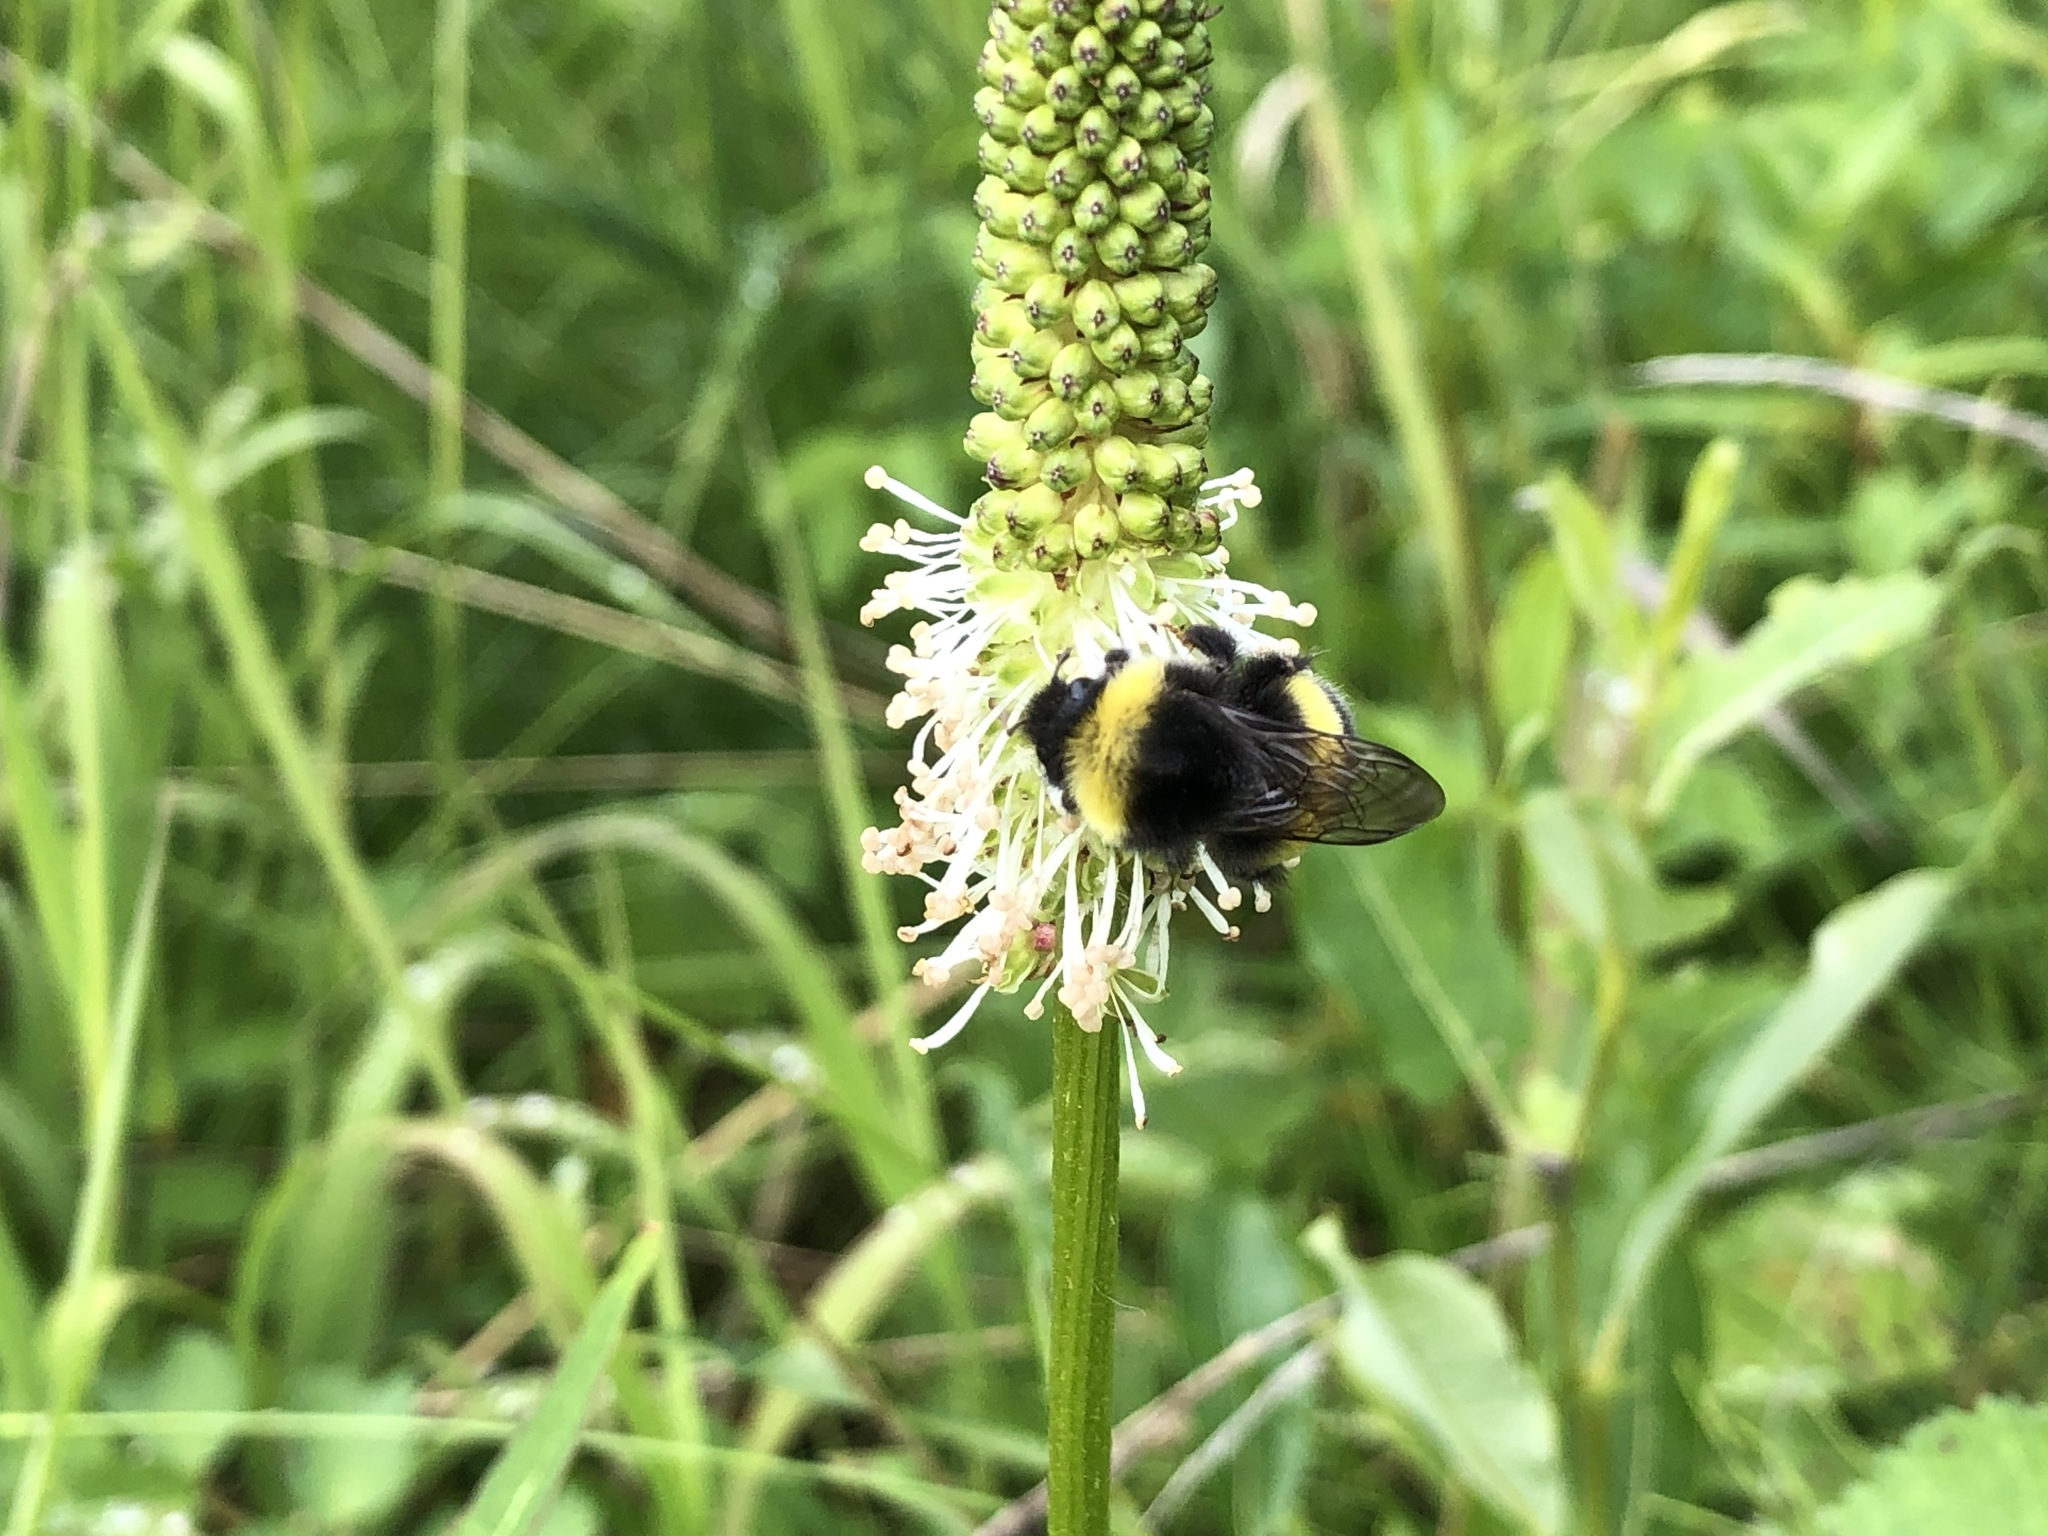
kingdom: Animalia
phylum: Arthropoda
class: Insecta
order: Hymenoptera
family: Apidae
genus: Bombus
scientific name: Bombus cryptarum
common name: Cryptic bumblebee
